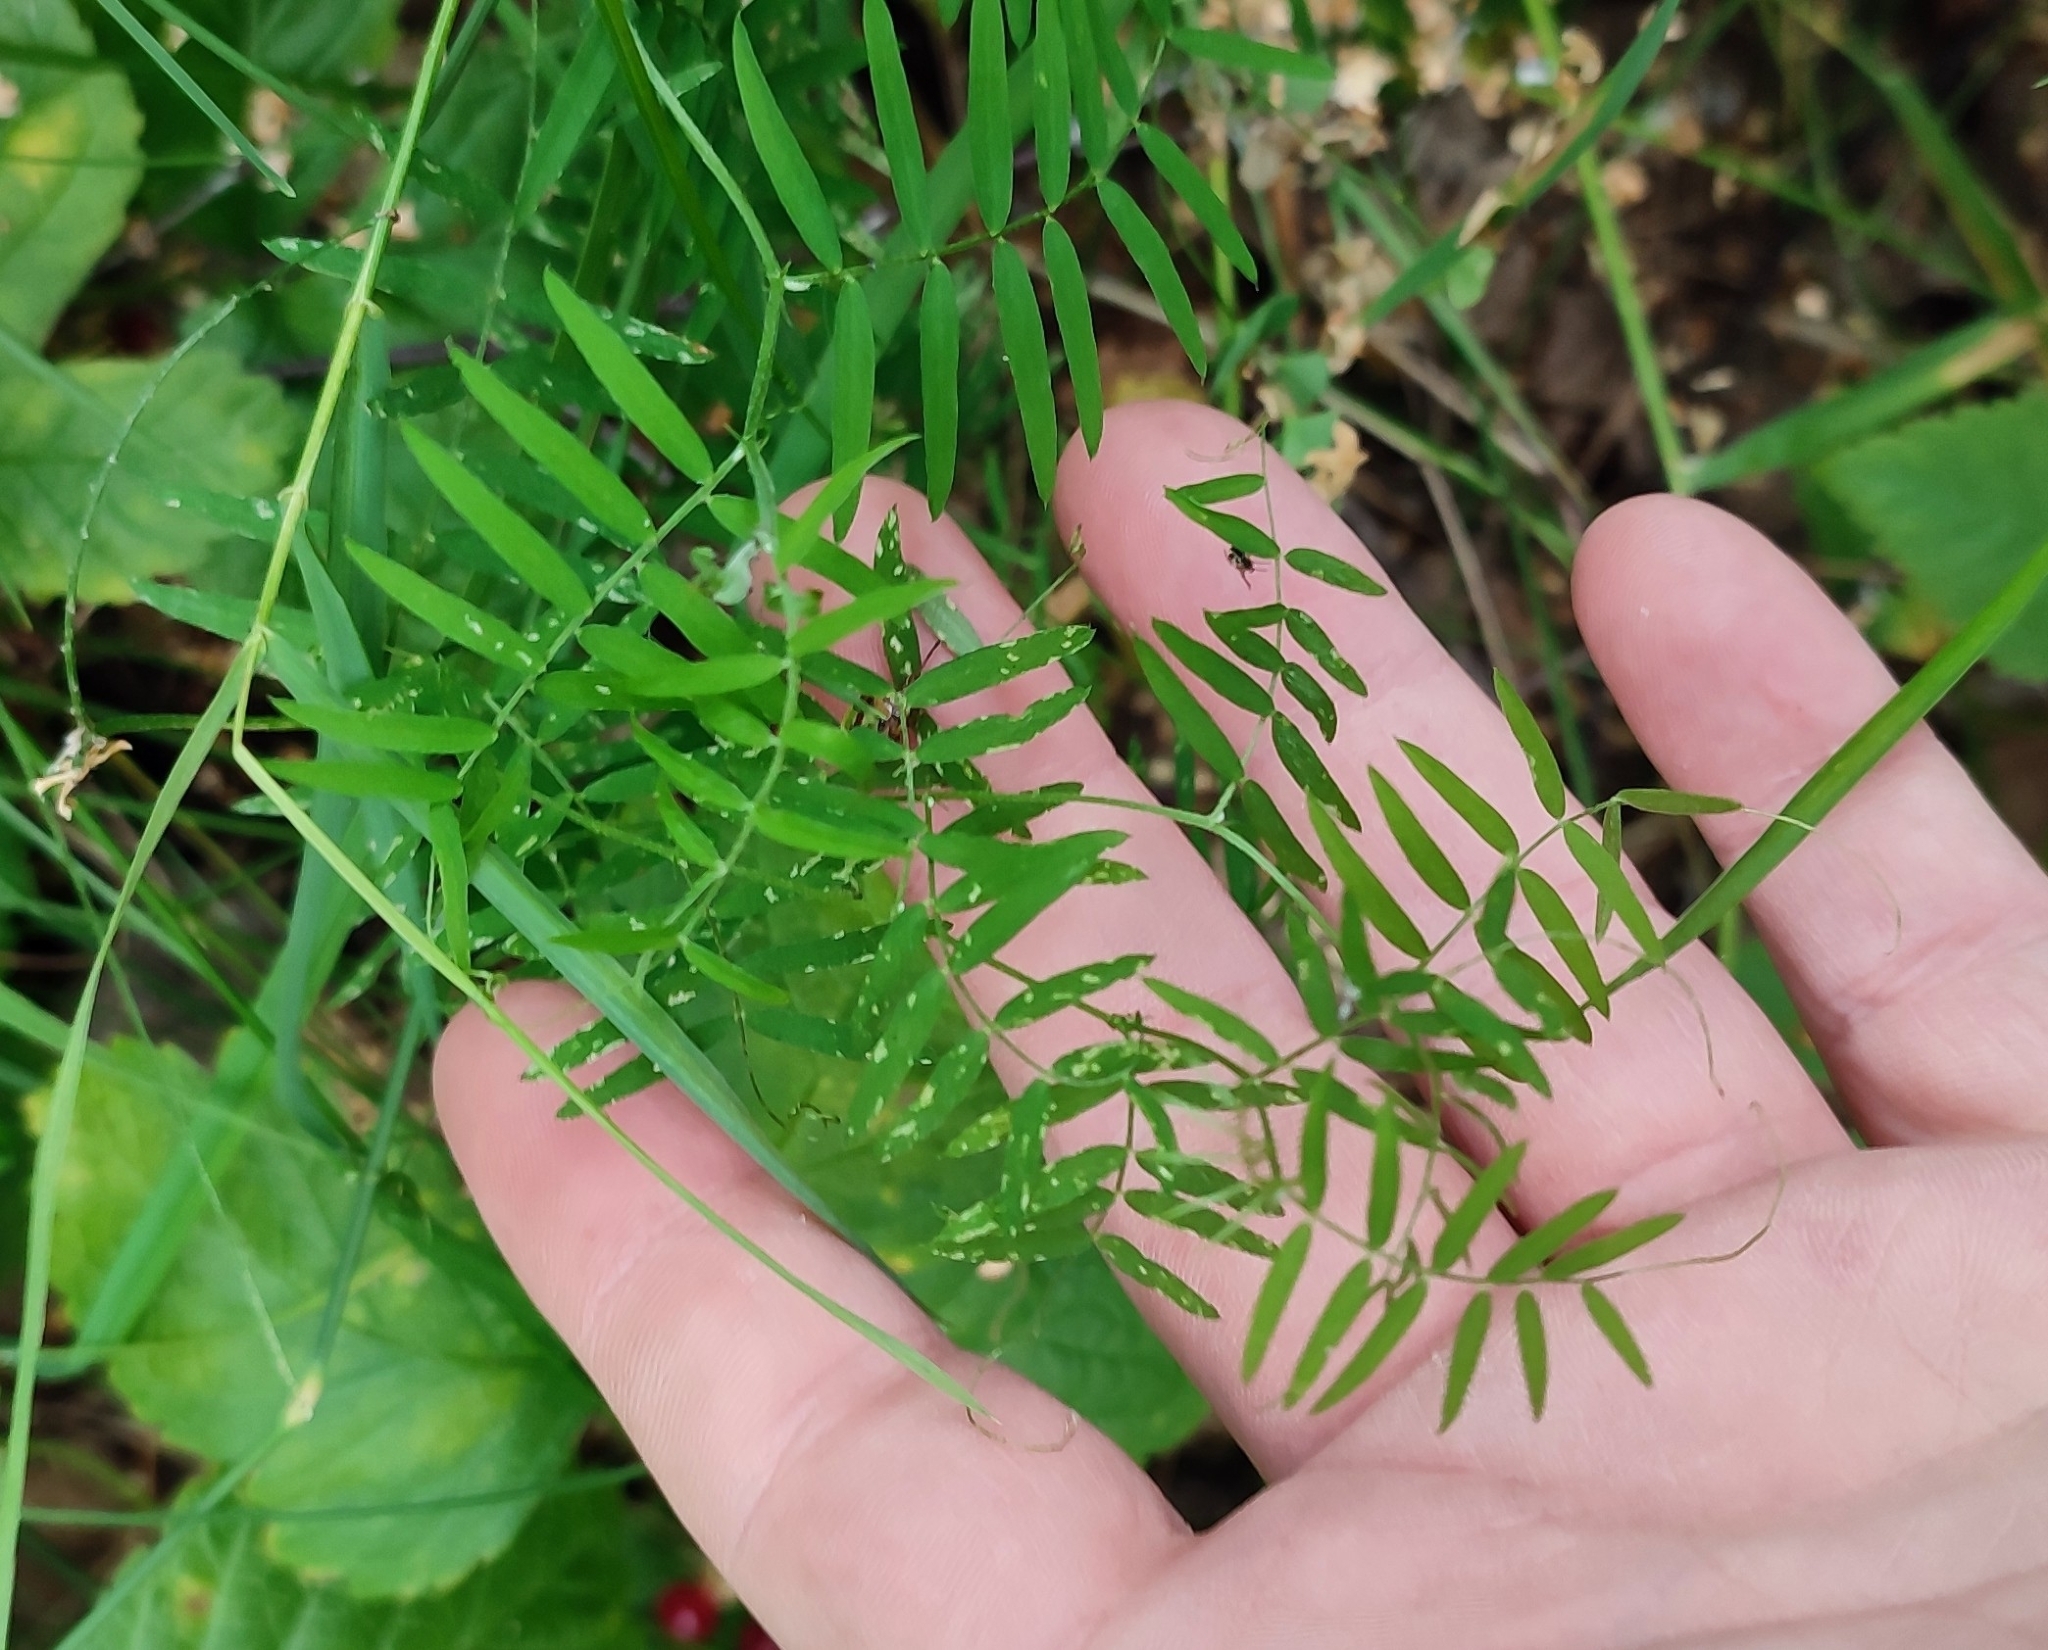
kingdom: Plantae
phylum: Tracheophyta
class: Magnoliopsida
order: Fabales
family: Fabaceae
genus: Vicia
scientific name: Vicia cracca
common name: Bird vetch
